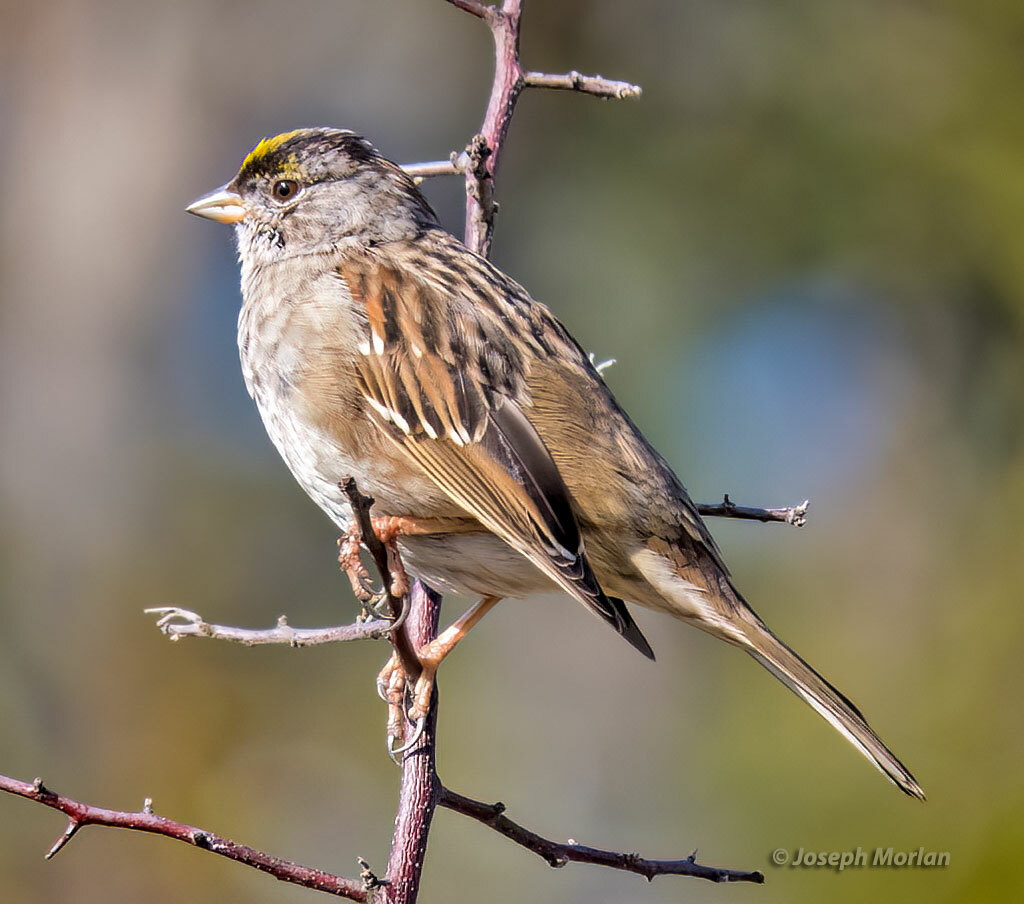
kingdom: Animalia
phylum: Chordata
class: Aves
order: Passeriformes
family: Passerellidae
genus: Zonotrichia
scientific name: Zonotrichia atricapilla
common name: Golden-crowned sparrow
